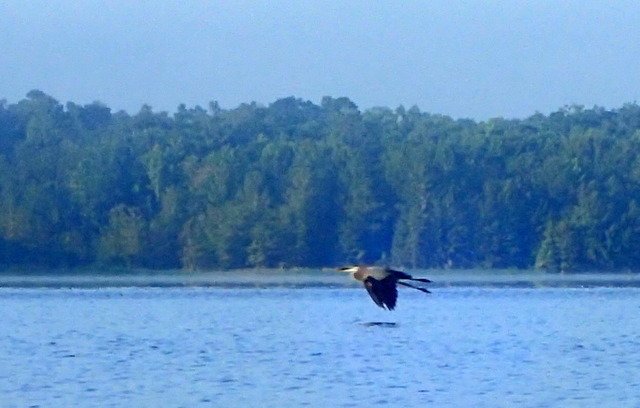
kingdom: Animalia
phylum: Chordata
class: Aves
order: Pelecaniformes
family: Ardeidae
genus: Ardea
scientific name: Ardea herodias
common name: Great blue heron
